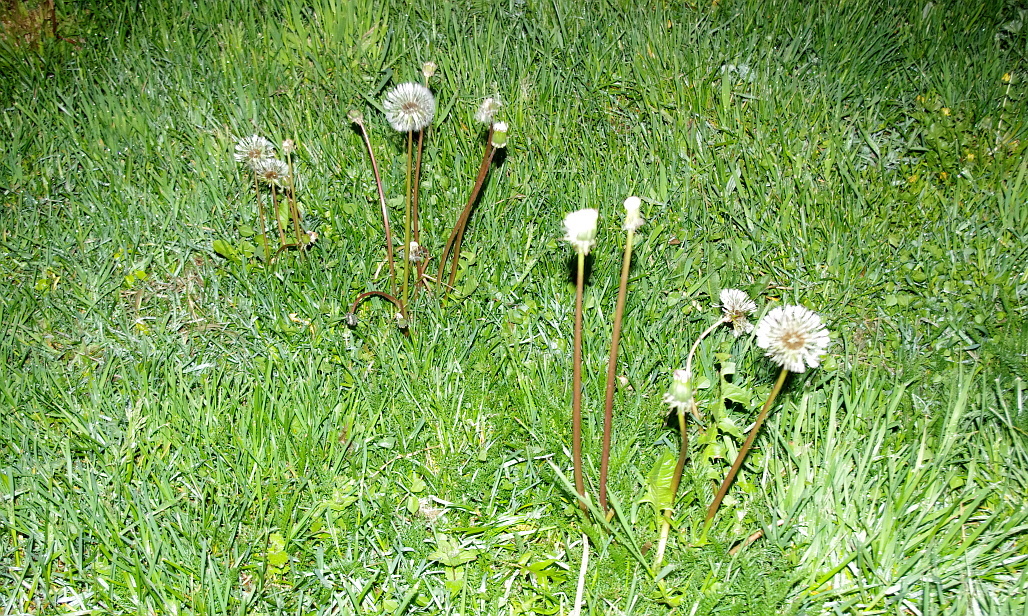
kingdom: Plantae
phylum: Tracheophyta
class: Magnoliopsida
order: Asterales
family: Asteraceae
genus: Taraxacum
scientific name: Taraxacum officinale
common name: Common dandelion
